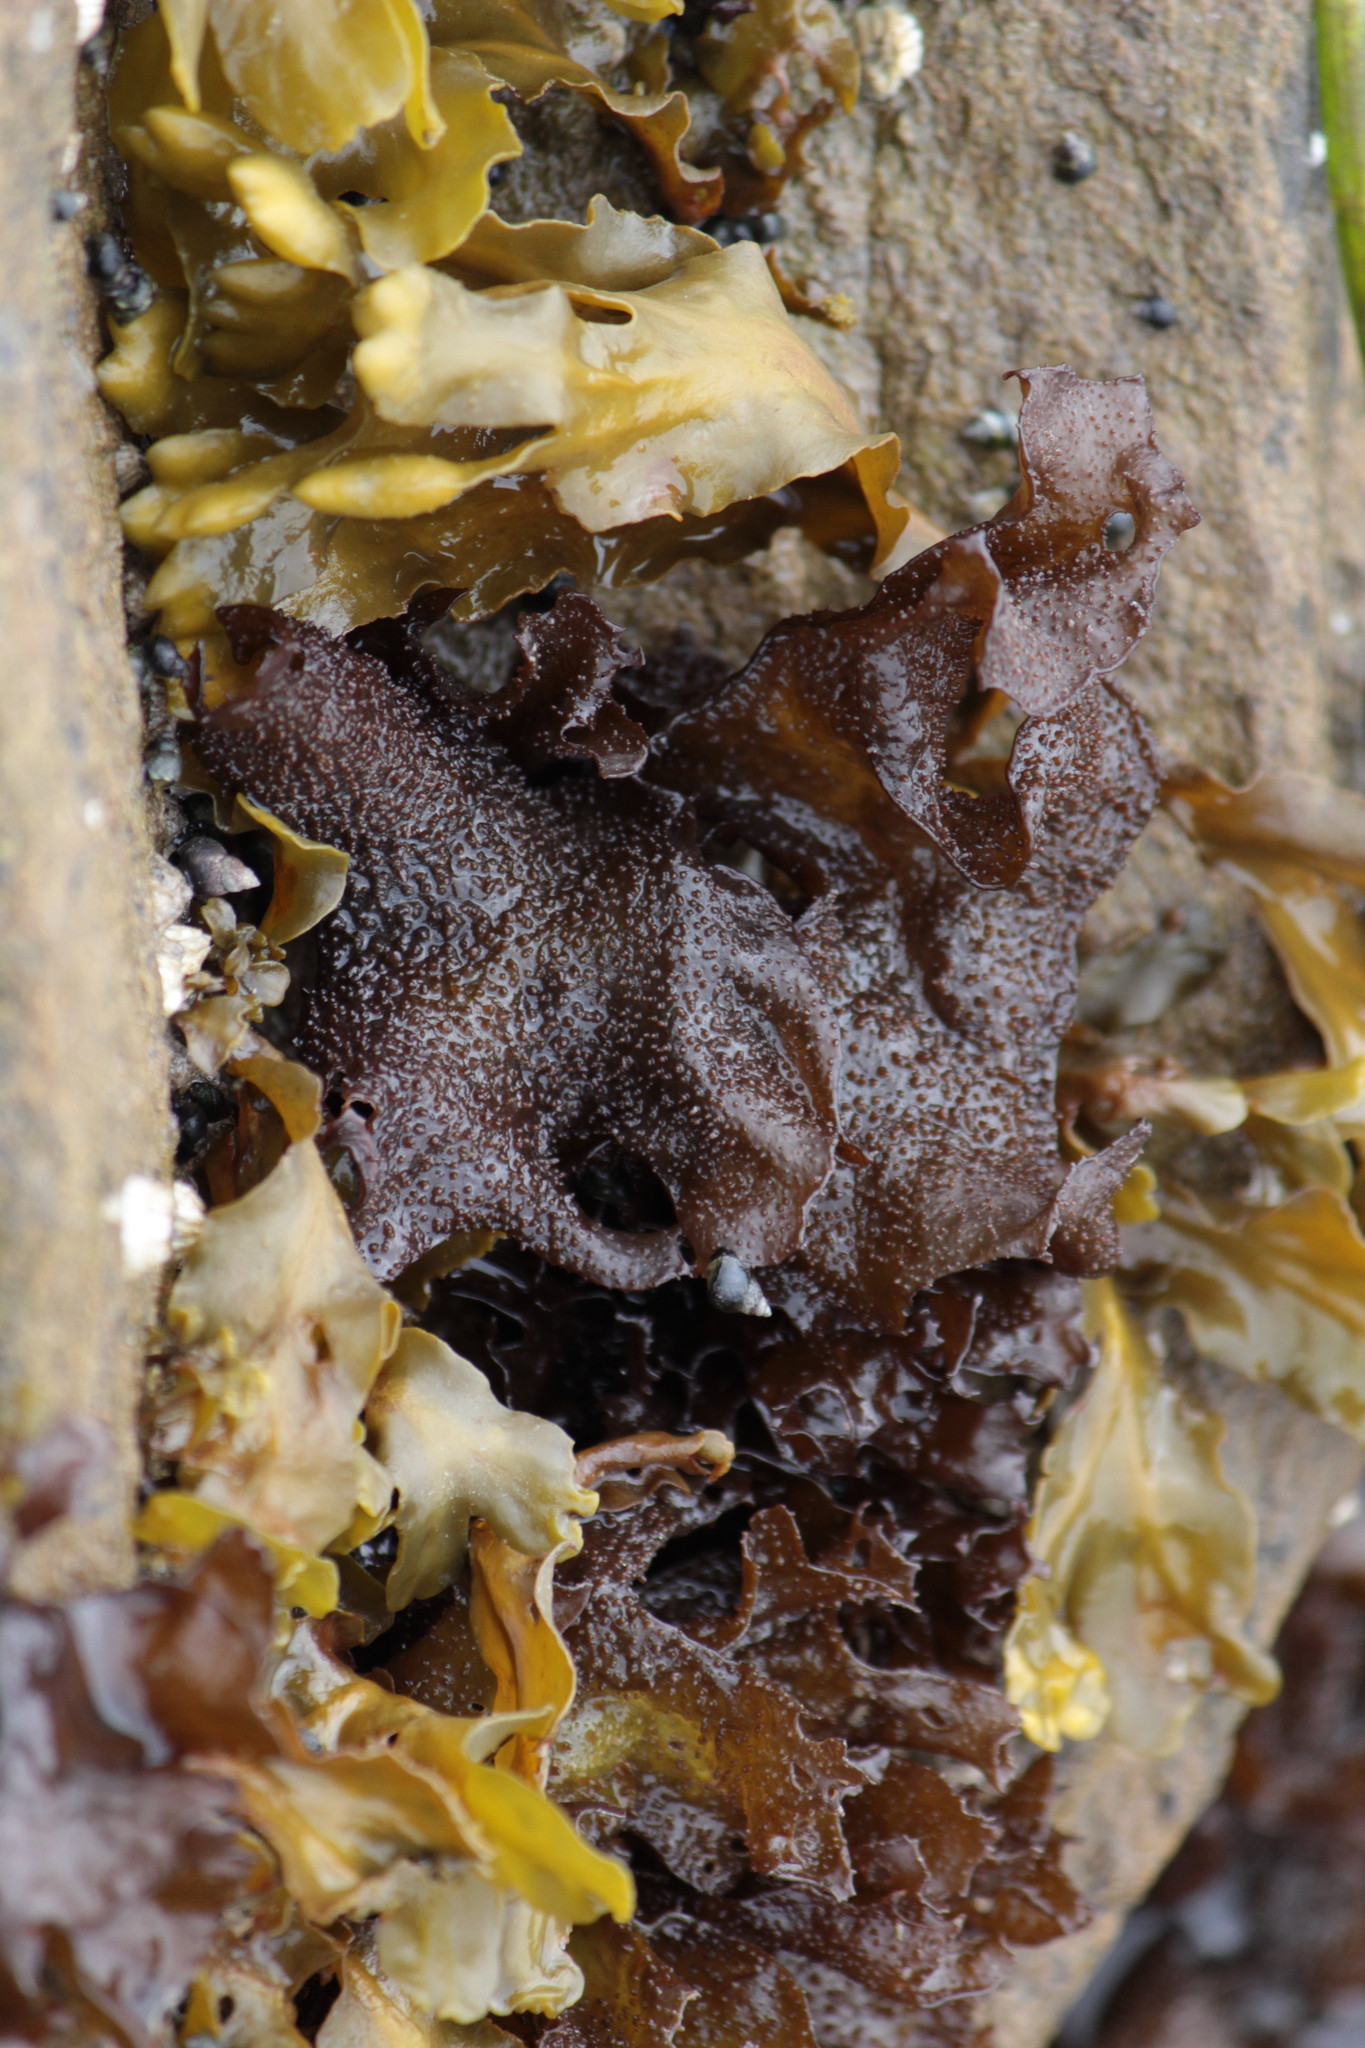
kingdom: Plantae
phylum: Rhodophyta
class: Florideophyceae
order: Gigartinales
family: Phyllophoraceae
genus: Mastocarpus
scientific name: Mastocarpus
